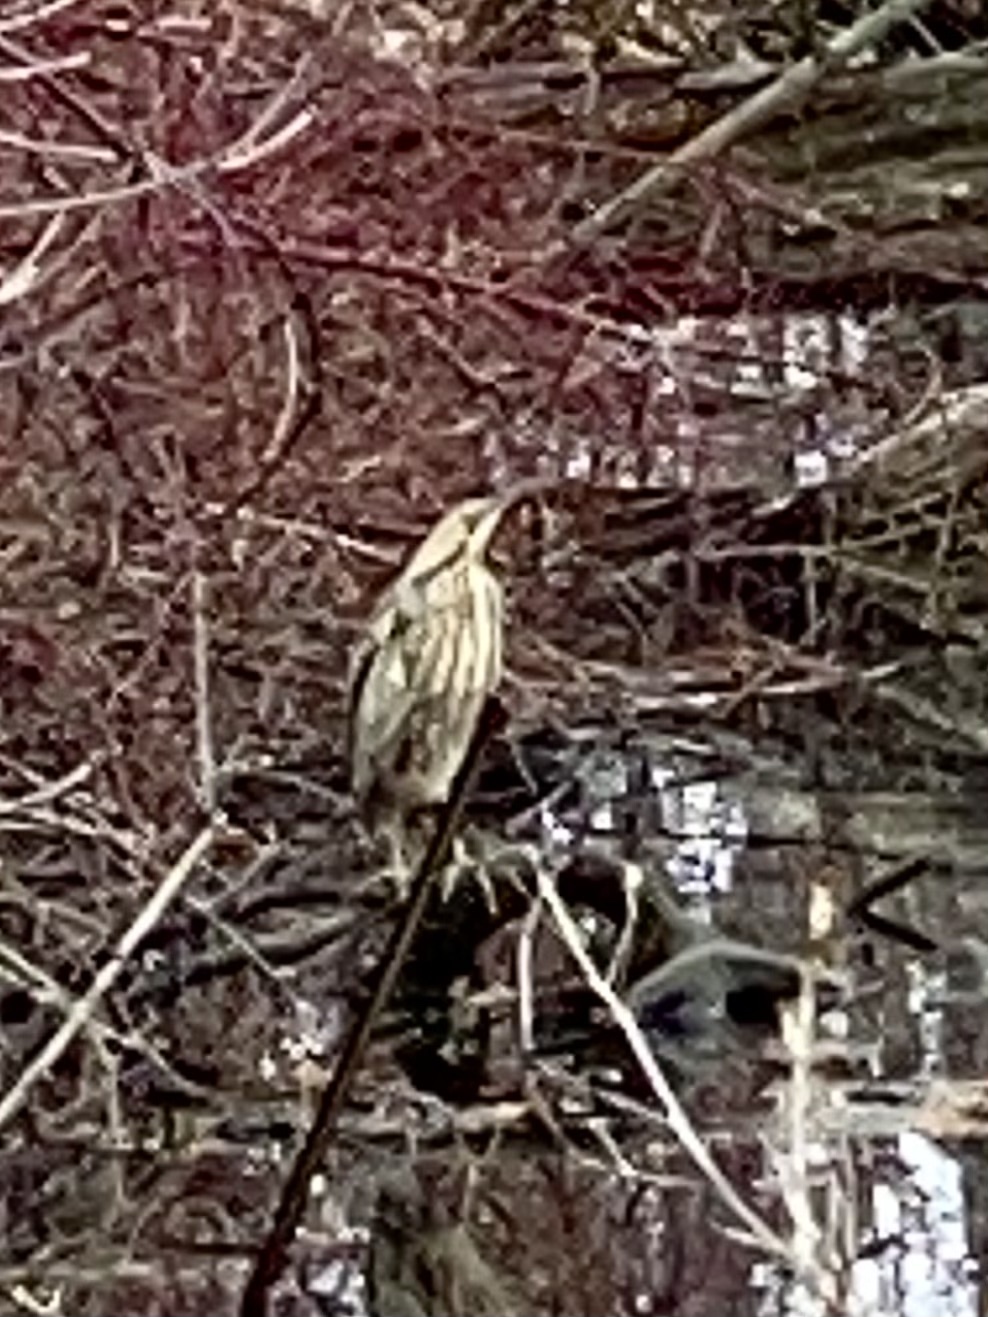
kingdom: Animalia
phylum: Chordata
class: Aves
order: Pelecaniformes
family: Ardeidae
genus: Botaurus
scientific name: Botaurus lentiginosus
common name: American bittern
